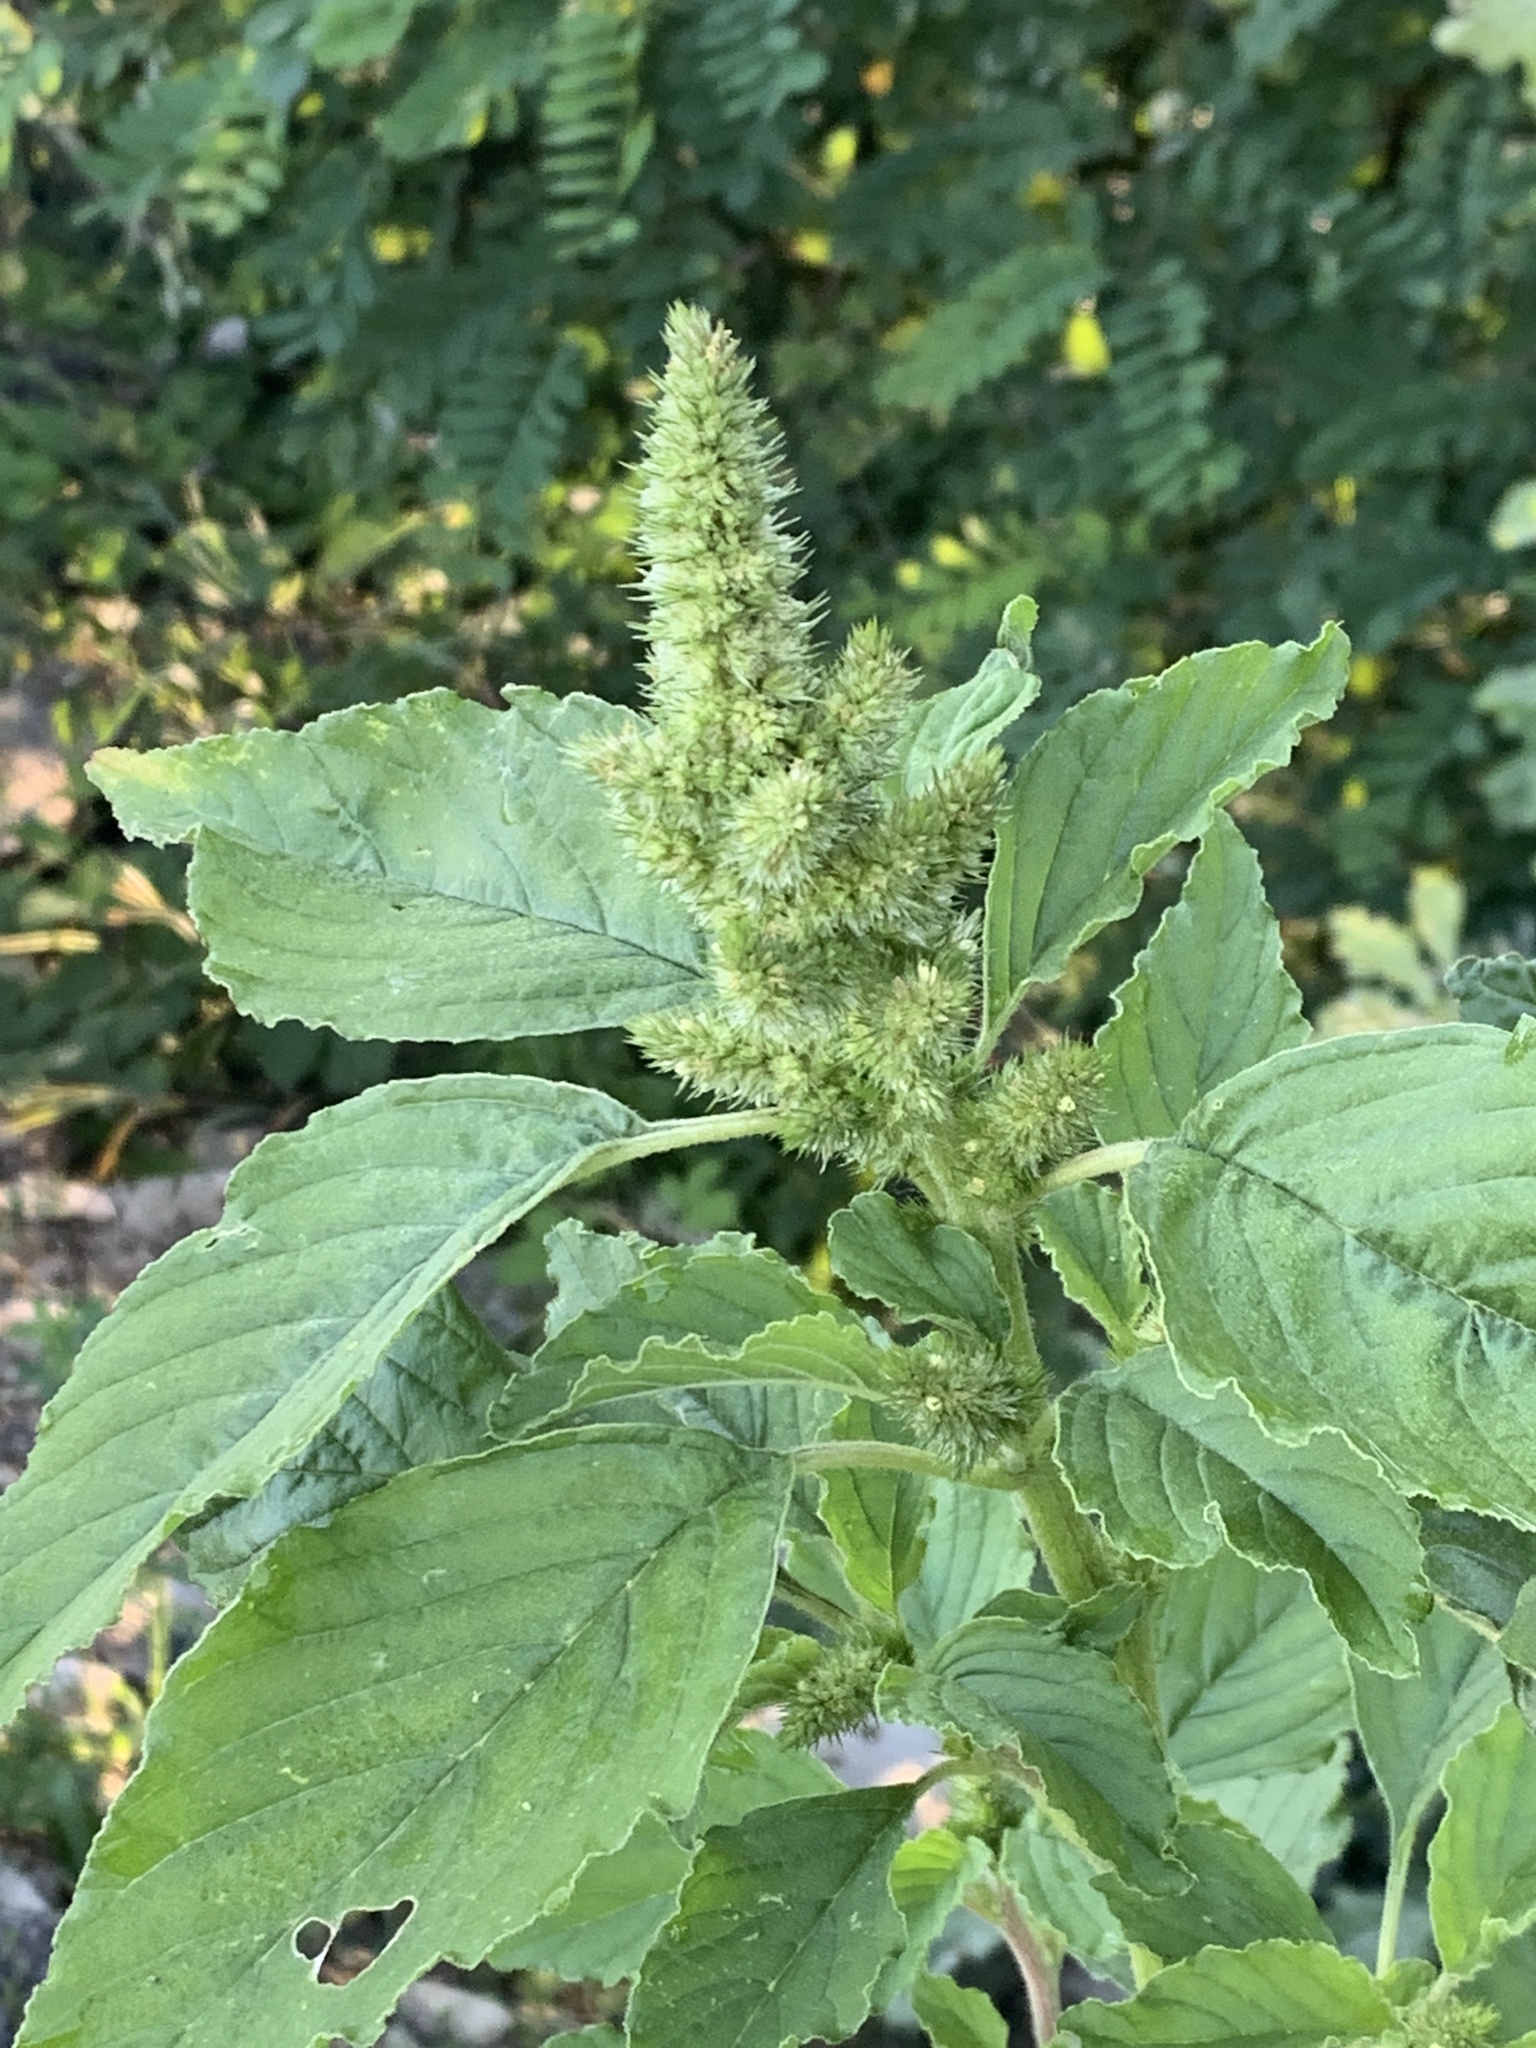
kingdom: Plantae
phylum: Tracheophyta
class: Magnoliopsida
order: Caryophyllales
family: Amaranthaceae
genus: Amaranthus
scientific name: Amaranthus retroflexus
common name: Redroot amaranth
